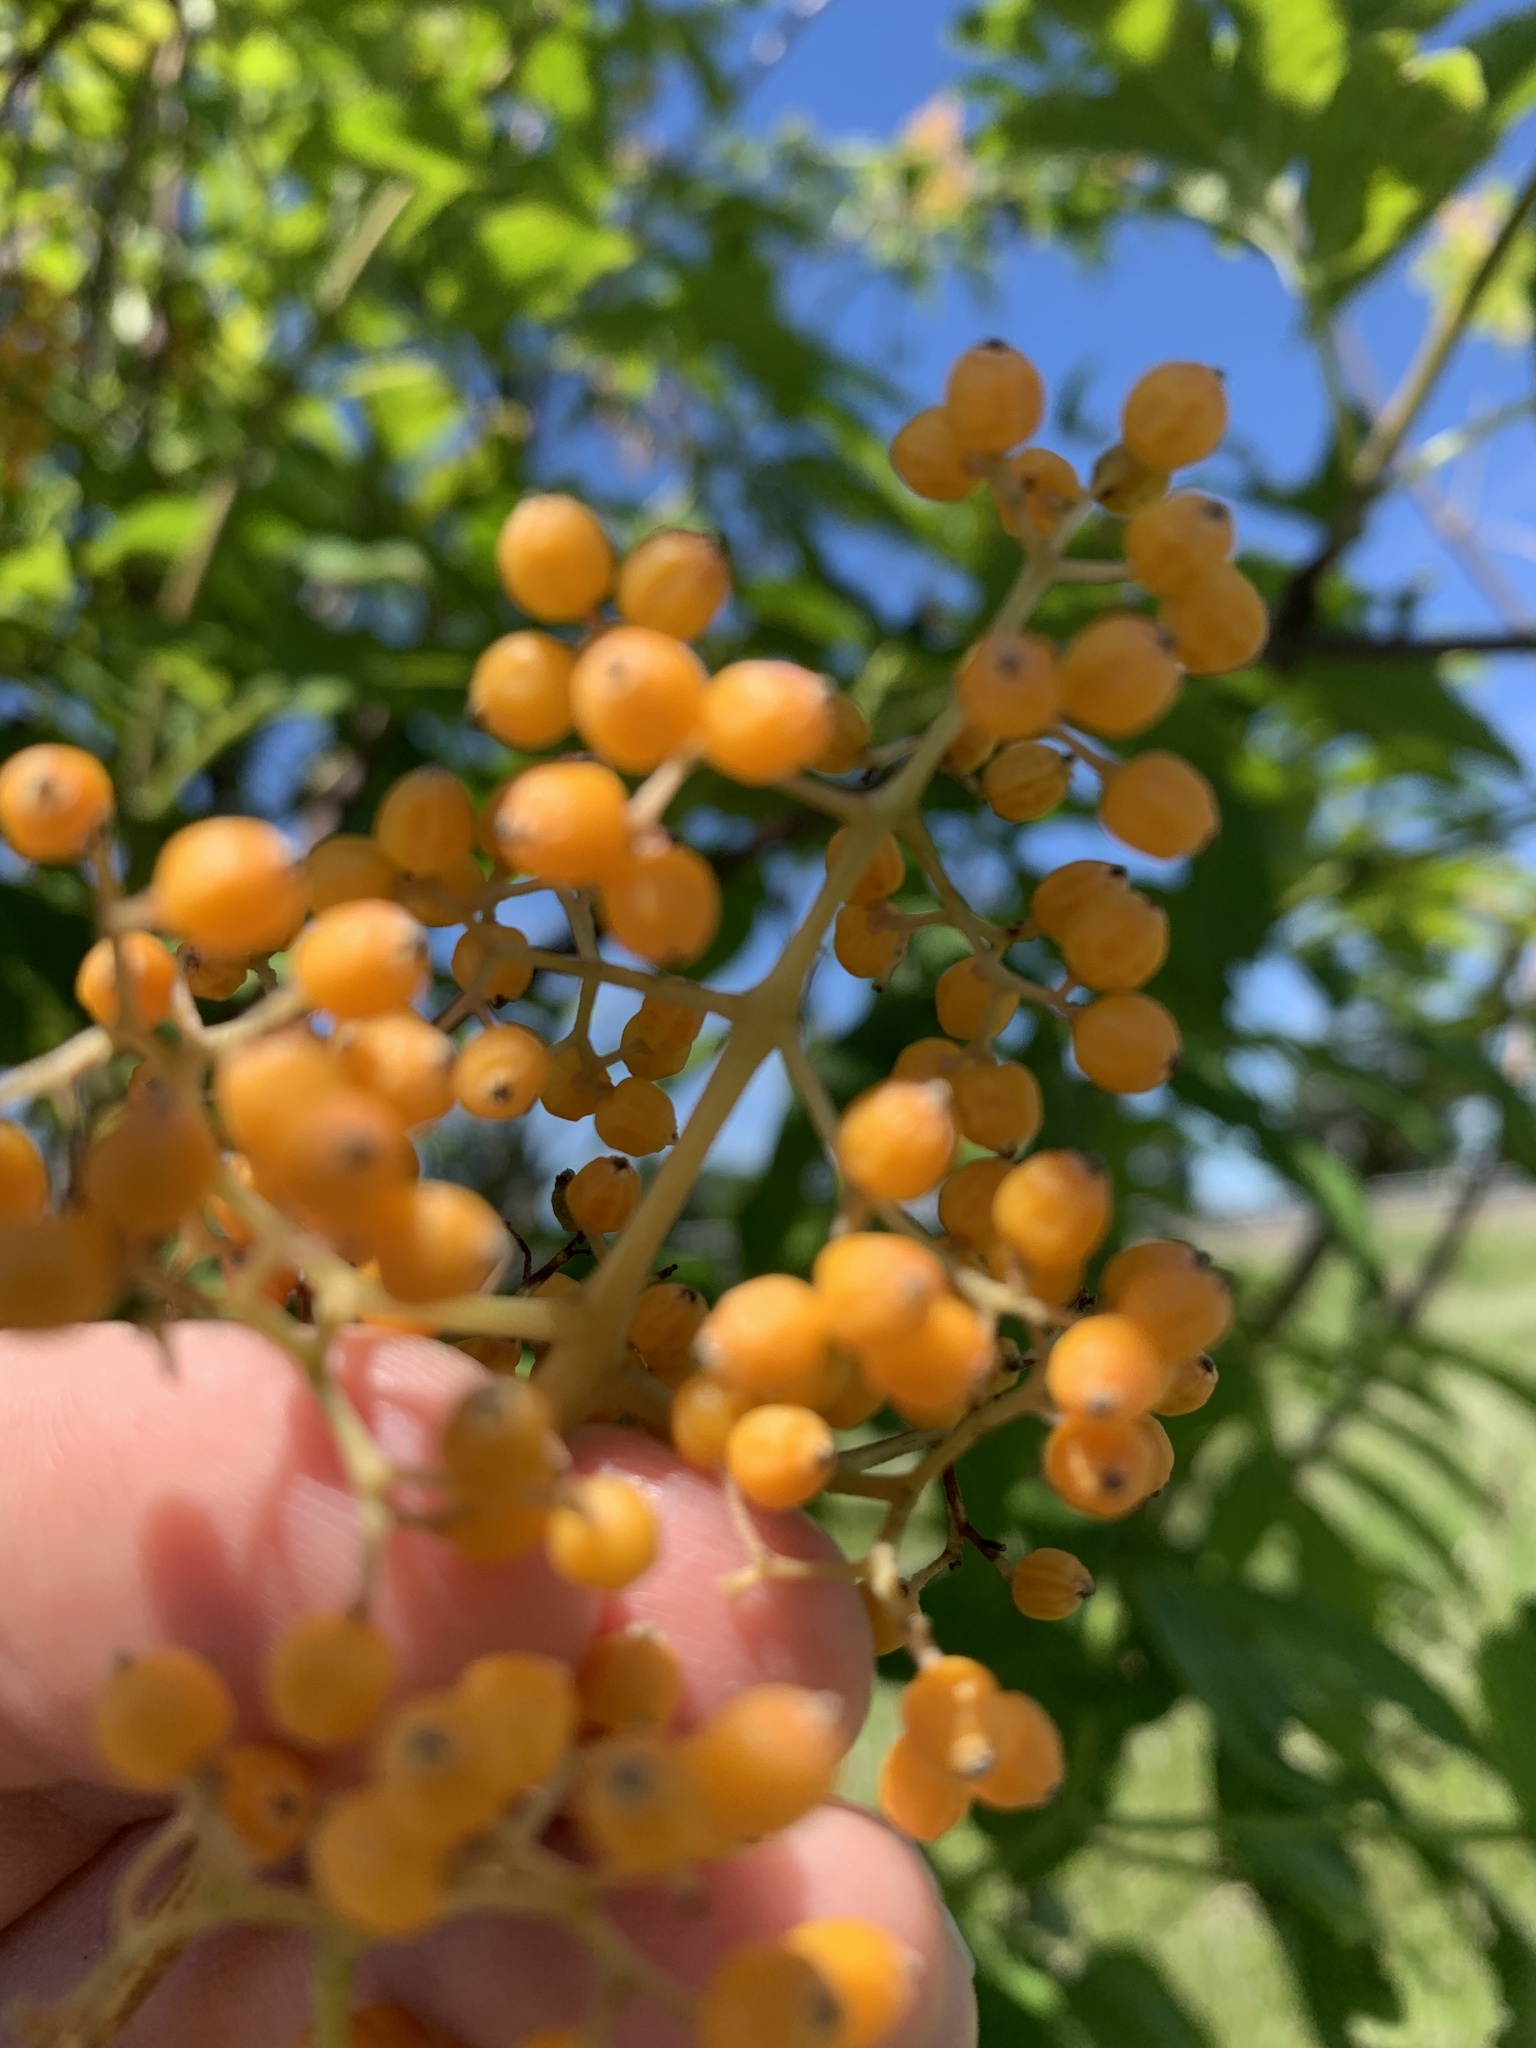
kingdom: Plantae
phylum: Tracheophyta
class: Magnoliopsida
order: Dipsacales
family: Viburnaceae
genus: Sambucus
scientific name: Sambucus racemosa
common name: Red-berried elder
